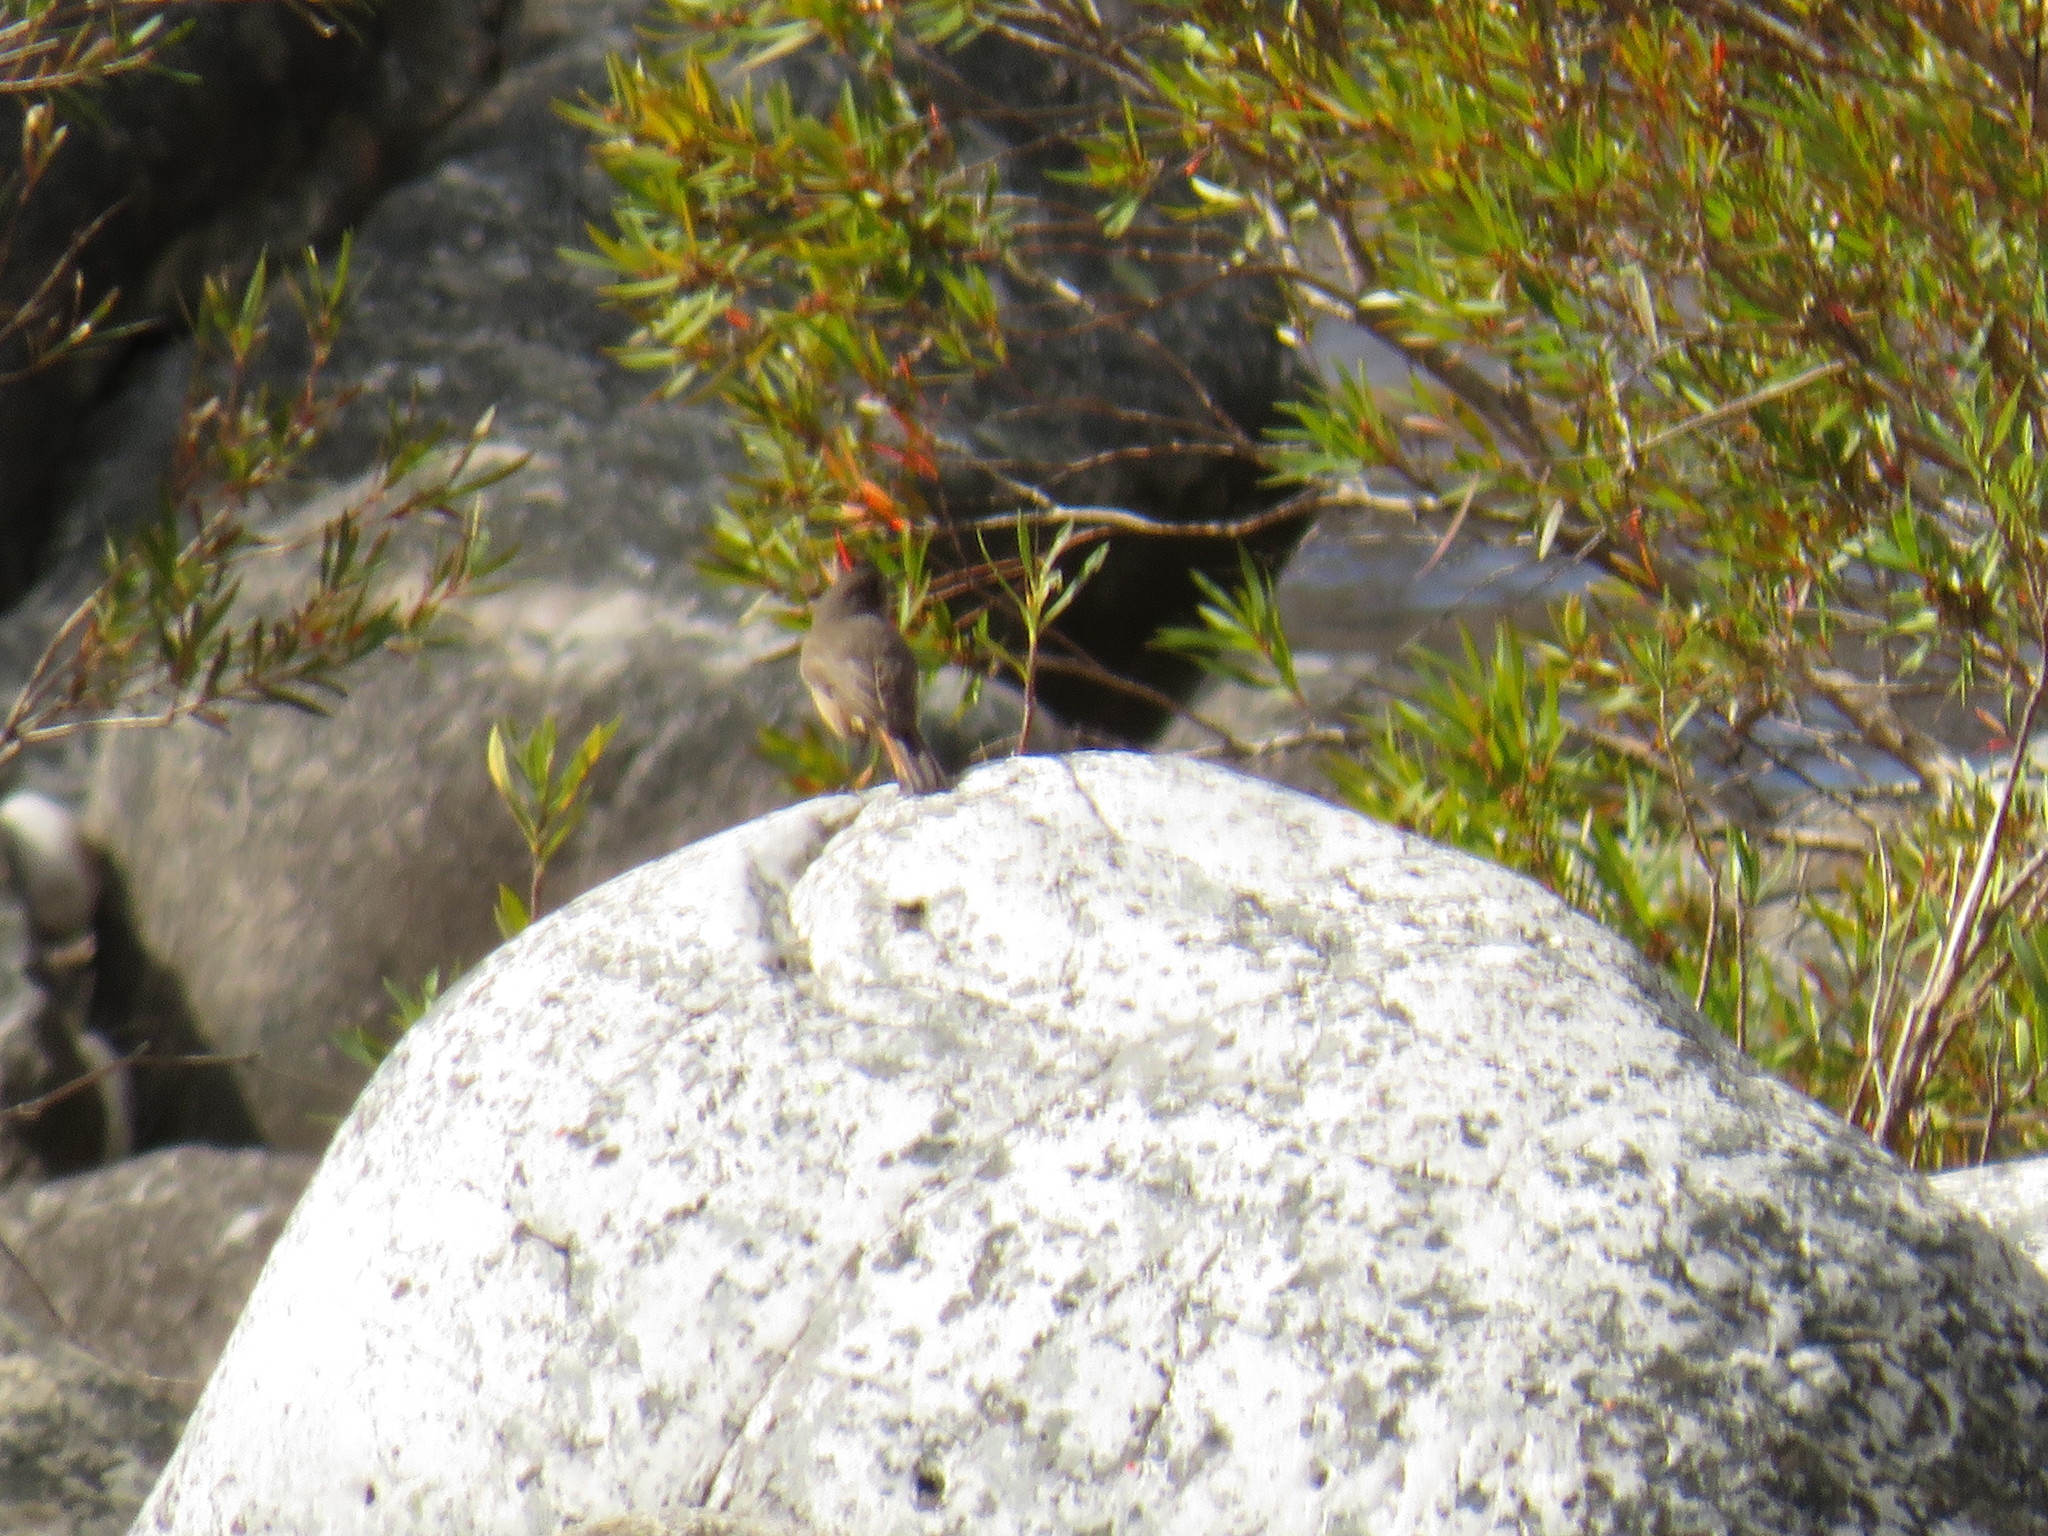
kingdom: Animalia
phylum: Chordata
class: Aves
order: Passeriformes
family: Muscicapidae
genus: Oenanthe
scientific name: Oenanthe familiaris
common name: Familiar chat
